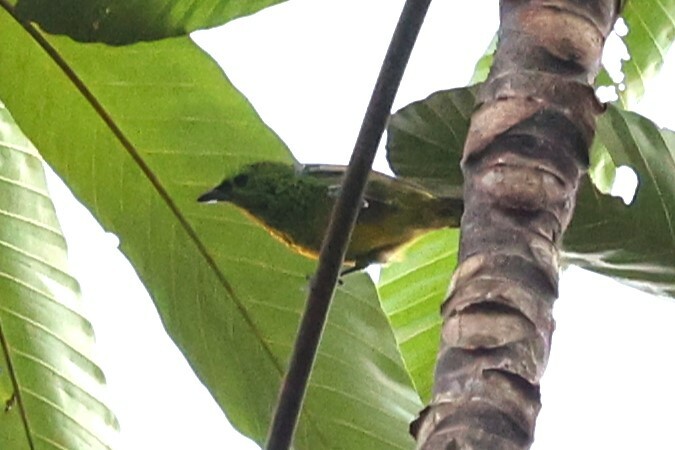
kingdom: Animalia
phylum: Chordata
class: Aves
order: Passeriformes
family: Thraupidae
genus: Ixothraupis
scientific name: Ixothraupis xanthogastra
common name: Yellow-bellied tanager
